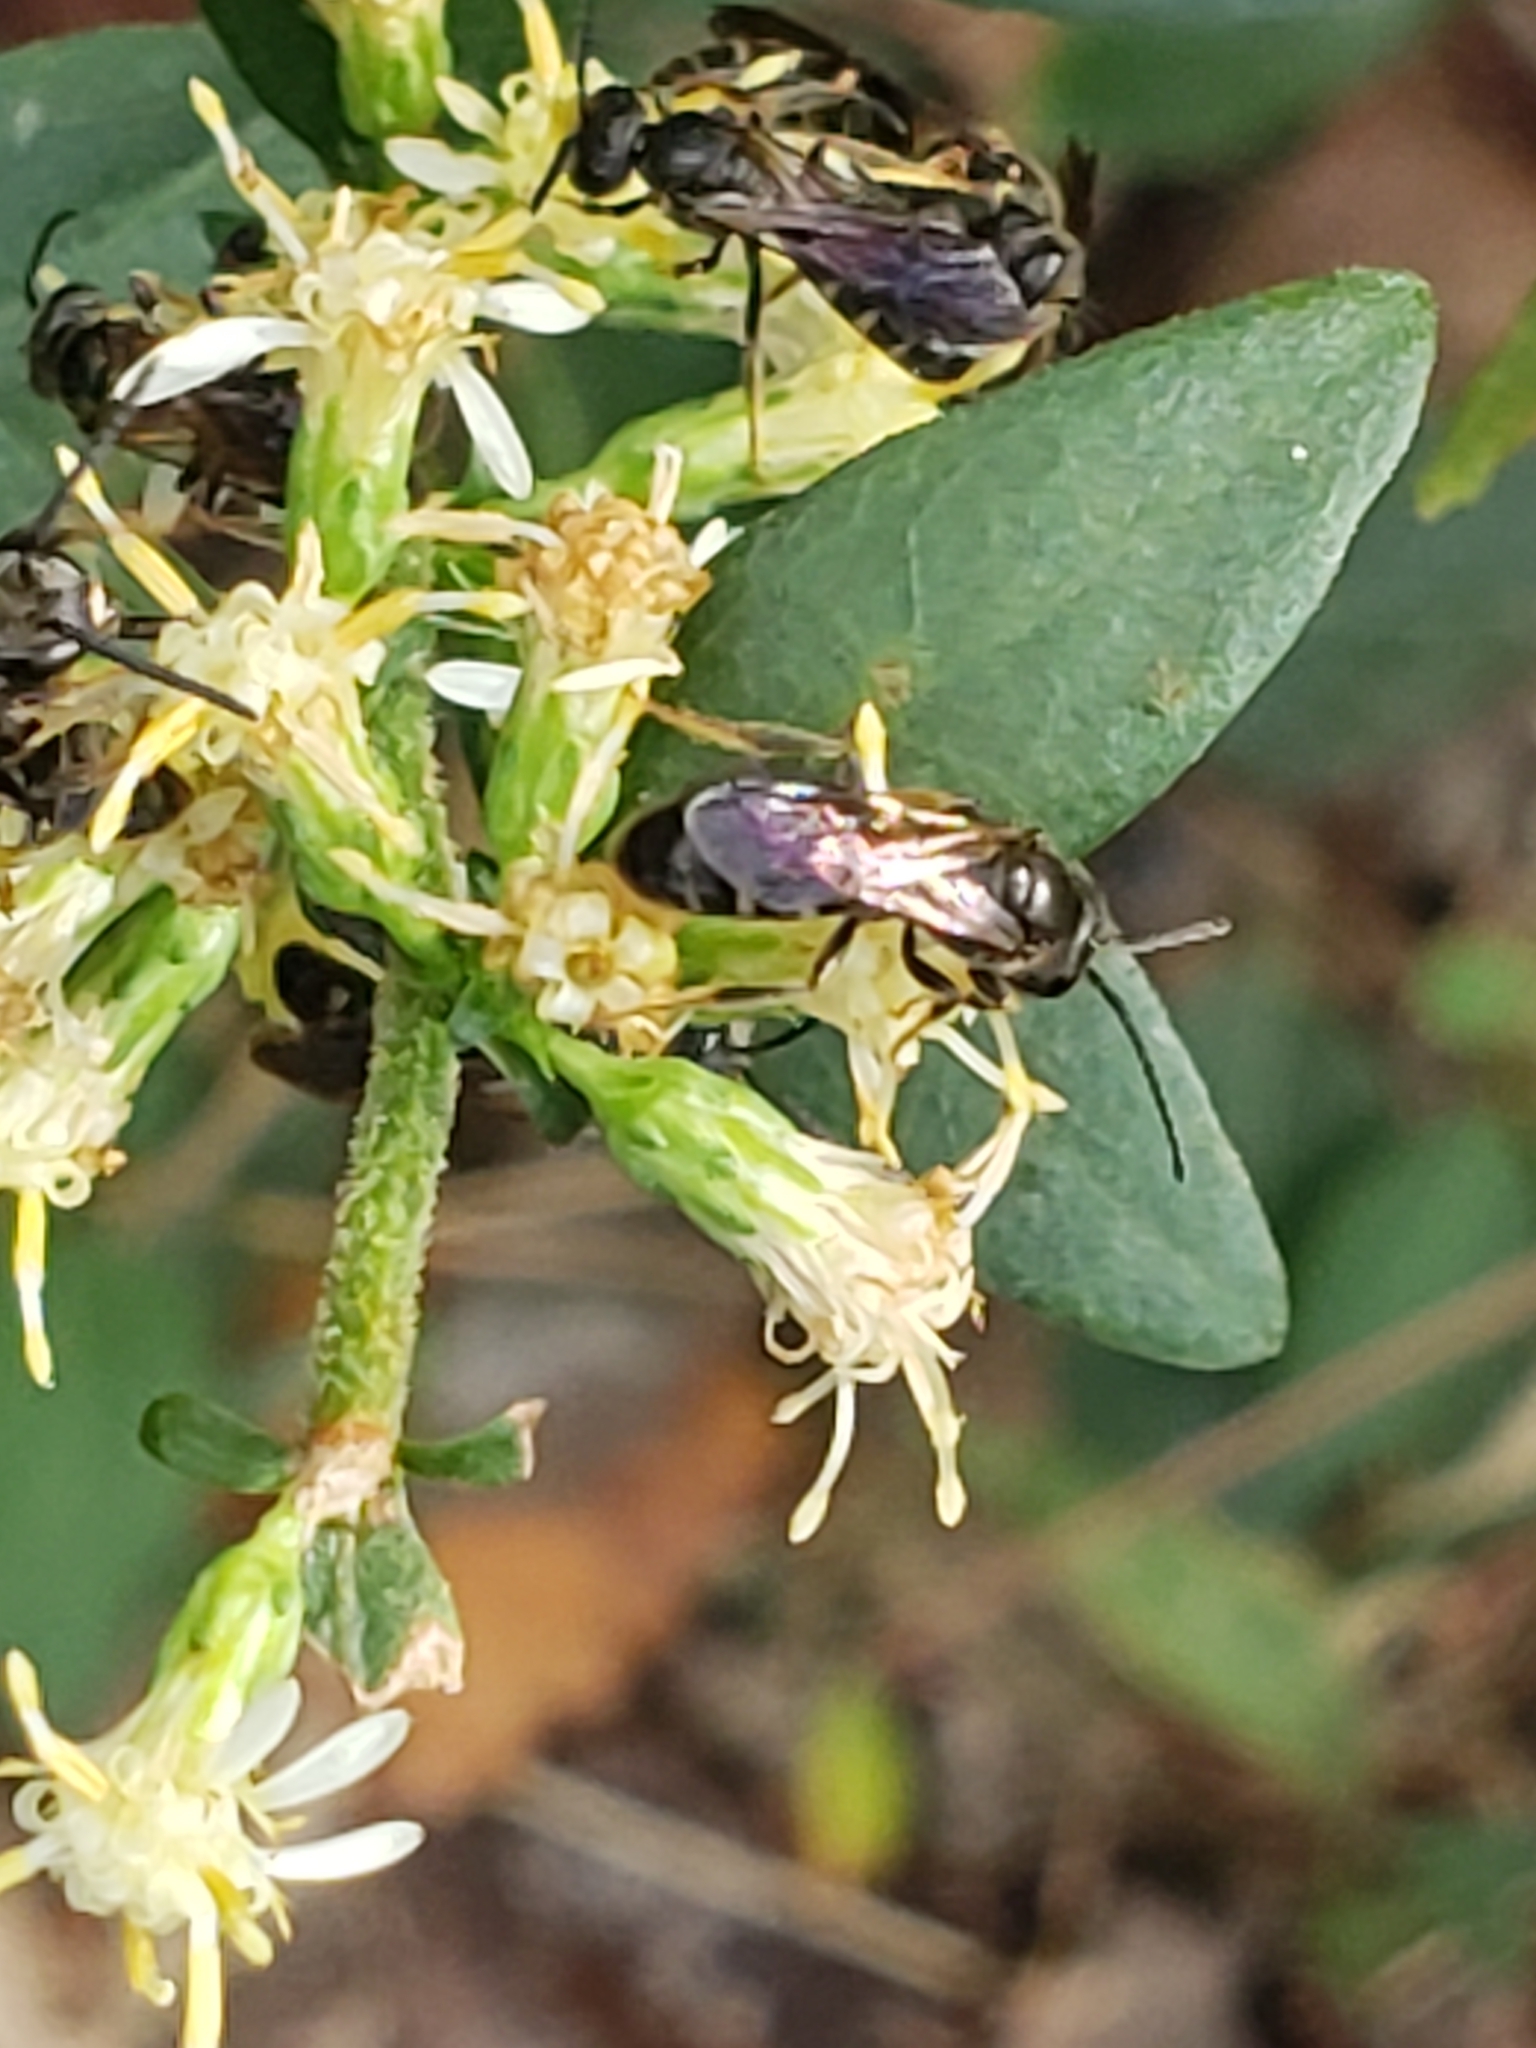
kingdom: Animalia
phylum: Arthropoda
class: Insecta
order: Hymenoptera
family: Halictidae
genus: Lasioglossum
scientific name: Lasioglossum fuscipenne
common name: Brown-winged sweat bee
